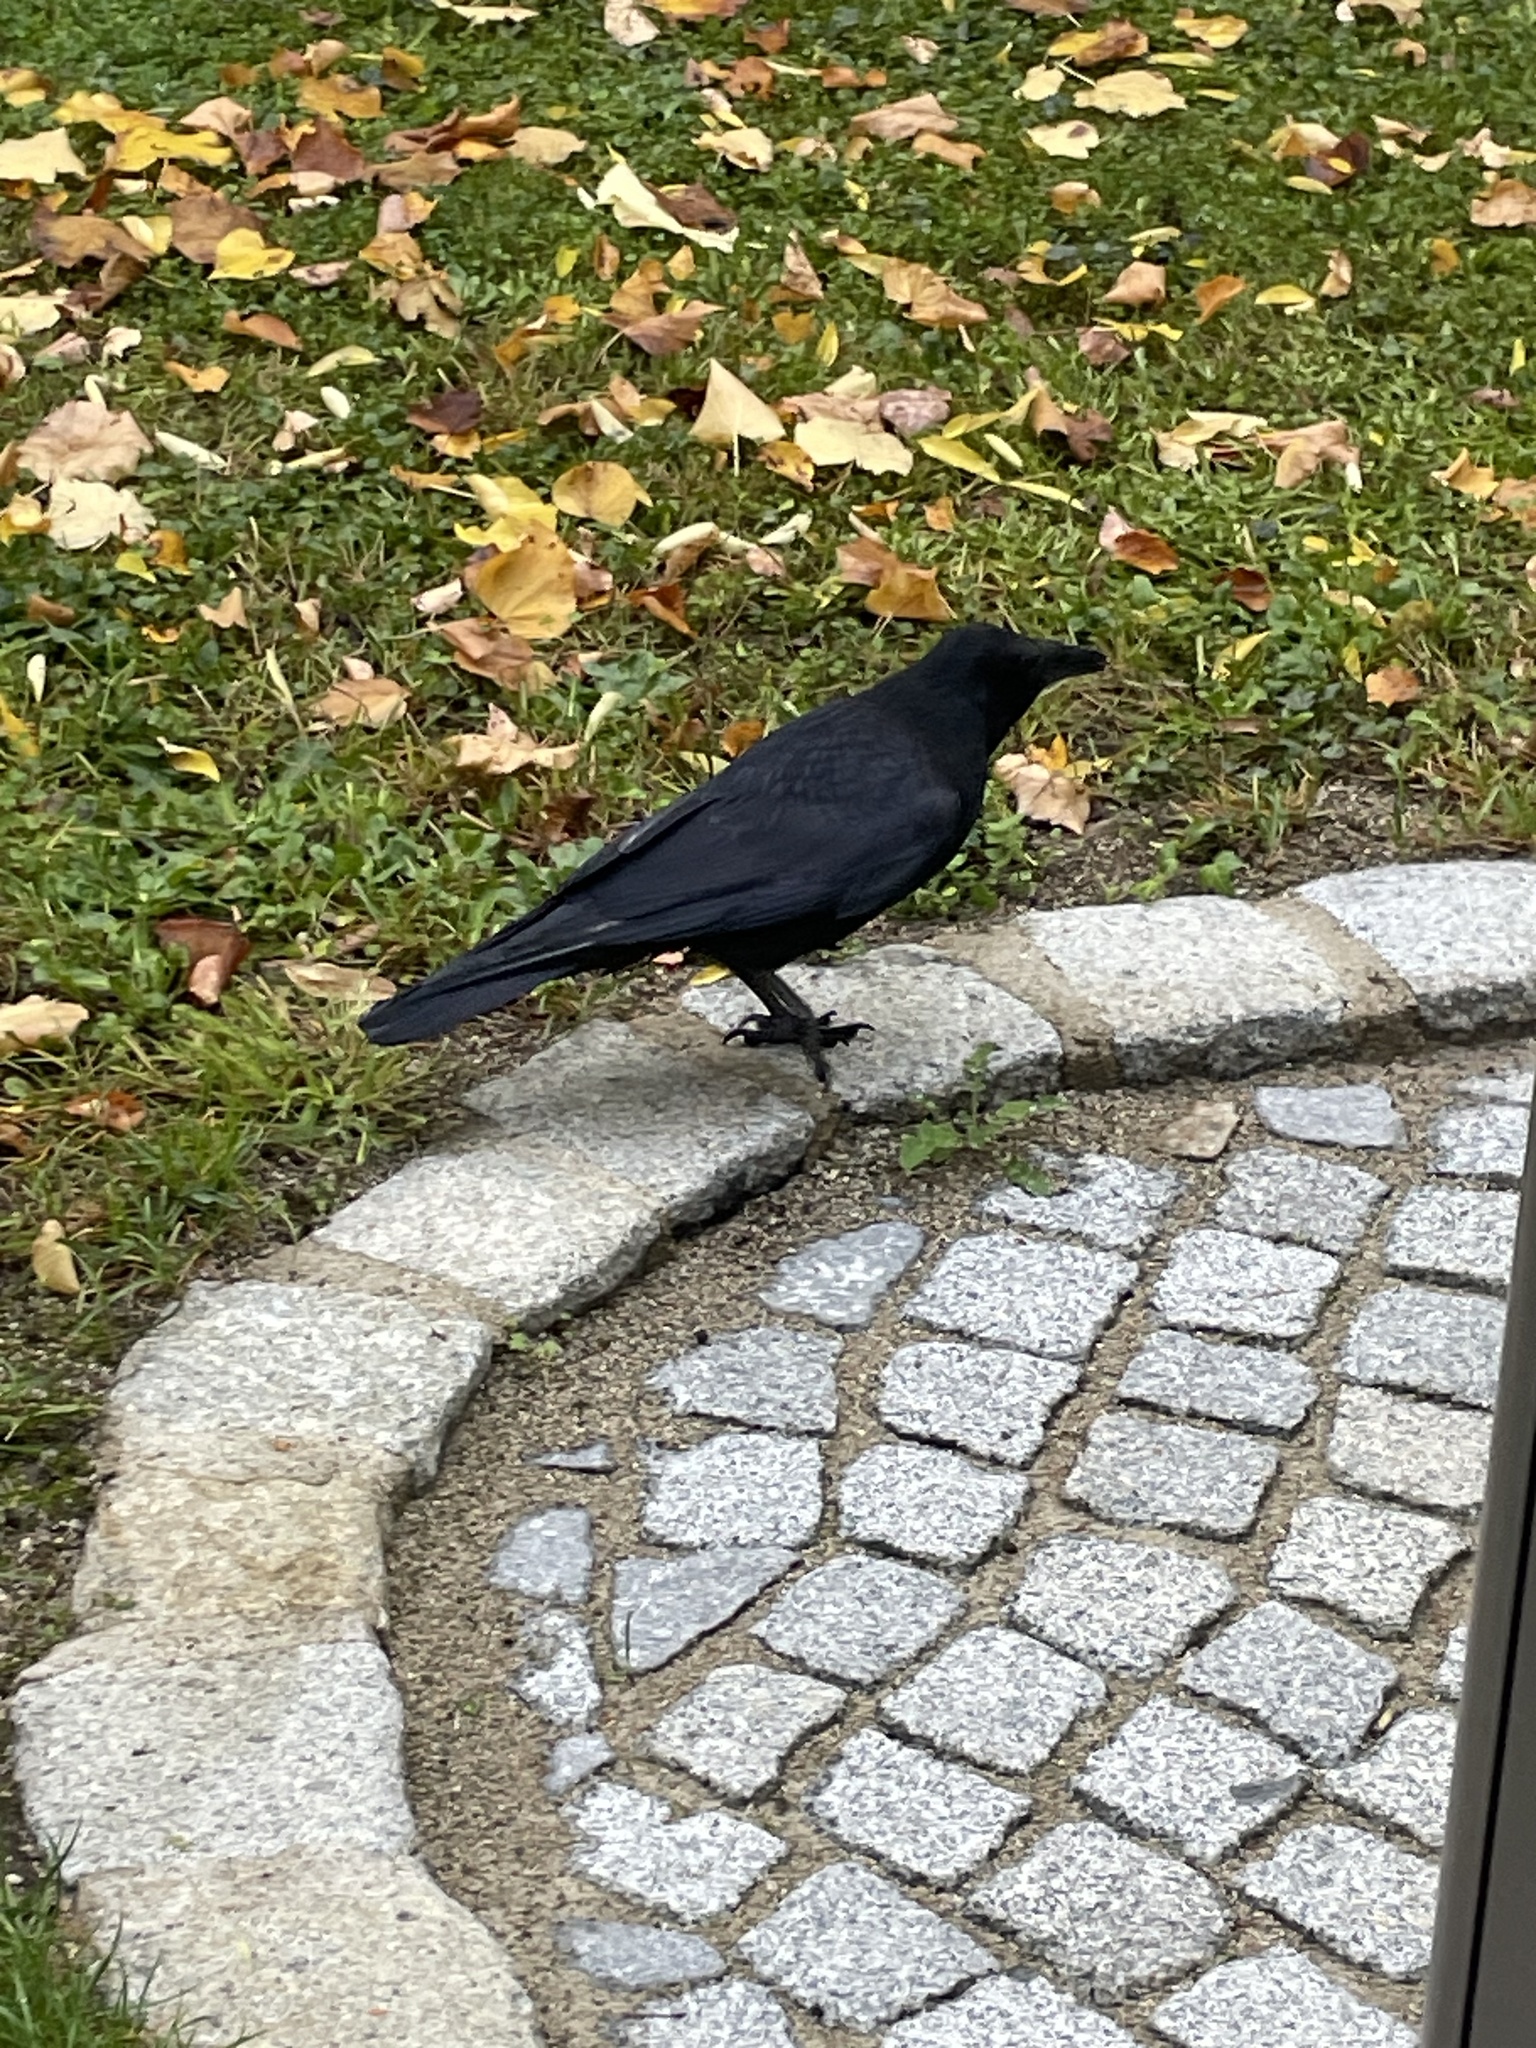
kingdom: Animalia
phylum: Chordata
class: Aves
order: Passeriformes
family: Corvidae
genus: Corvus
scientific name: Corvus corone
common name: Carrion crow
